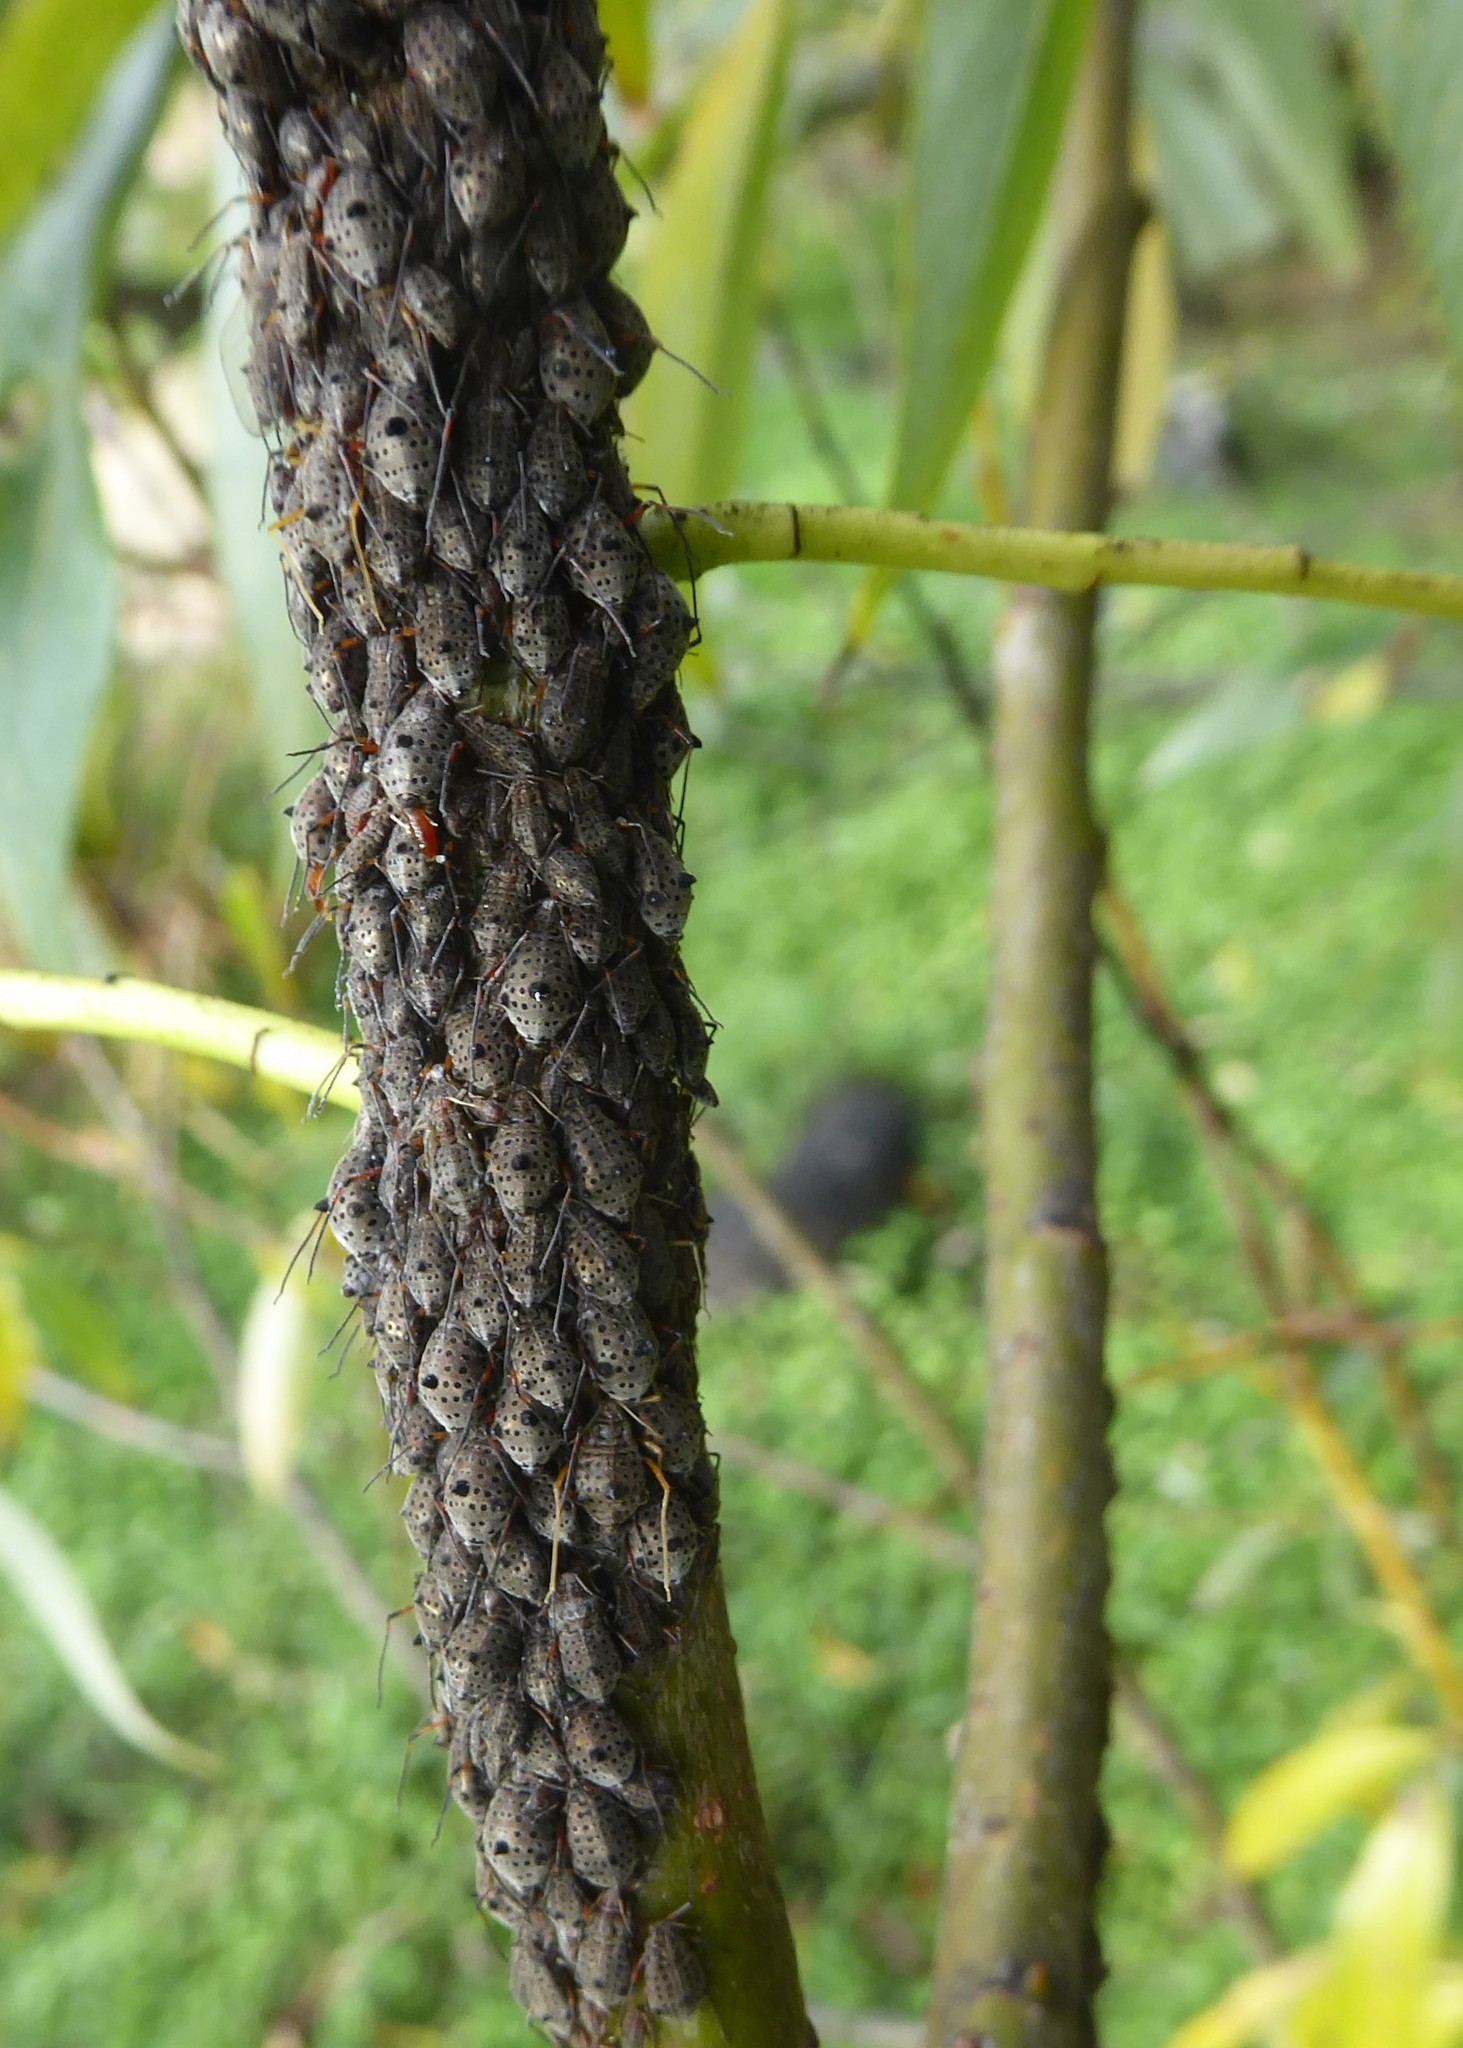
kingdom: Animalia
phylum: Arthropoda
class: Insecta
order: Hemiptera
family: Aphididae
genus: Tuberolachnus
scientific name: Tuberolachnus salignus
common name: Giant willow aphid
